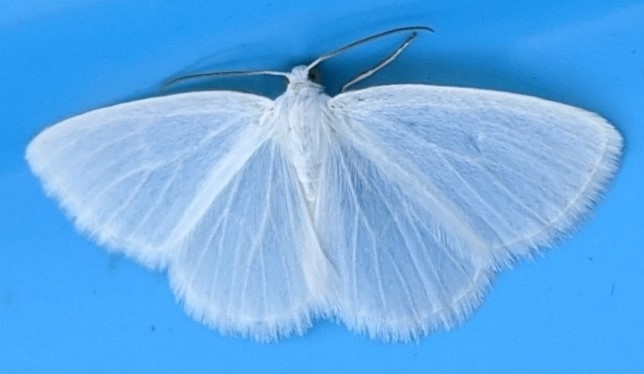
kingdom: Animalia
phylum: Arthropoda
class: Insecta
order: Lepidoptera
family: Geometridae
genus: Lomographa
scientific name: Lomographa vestaliata
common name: White spring moth
